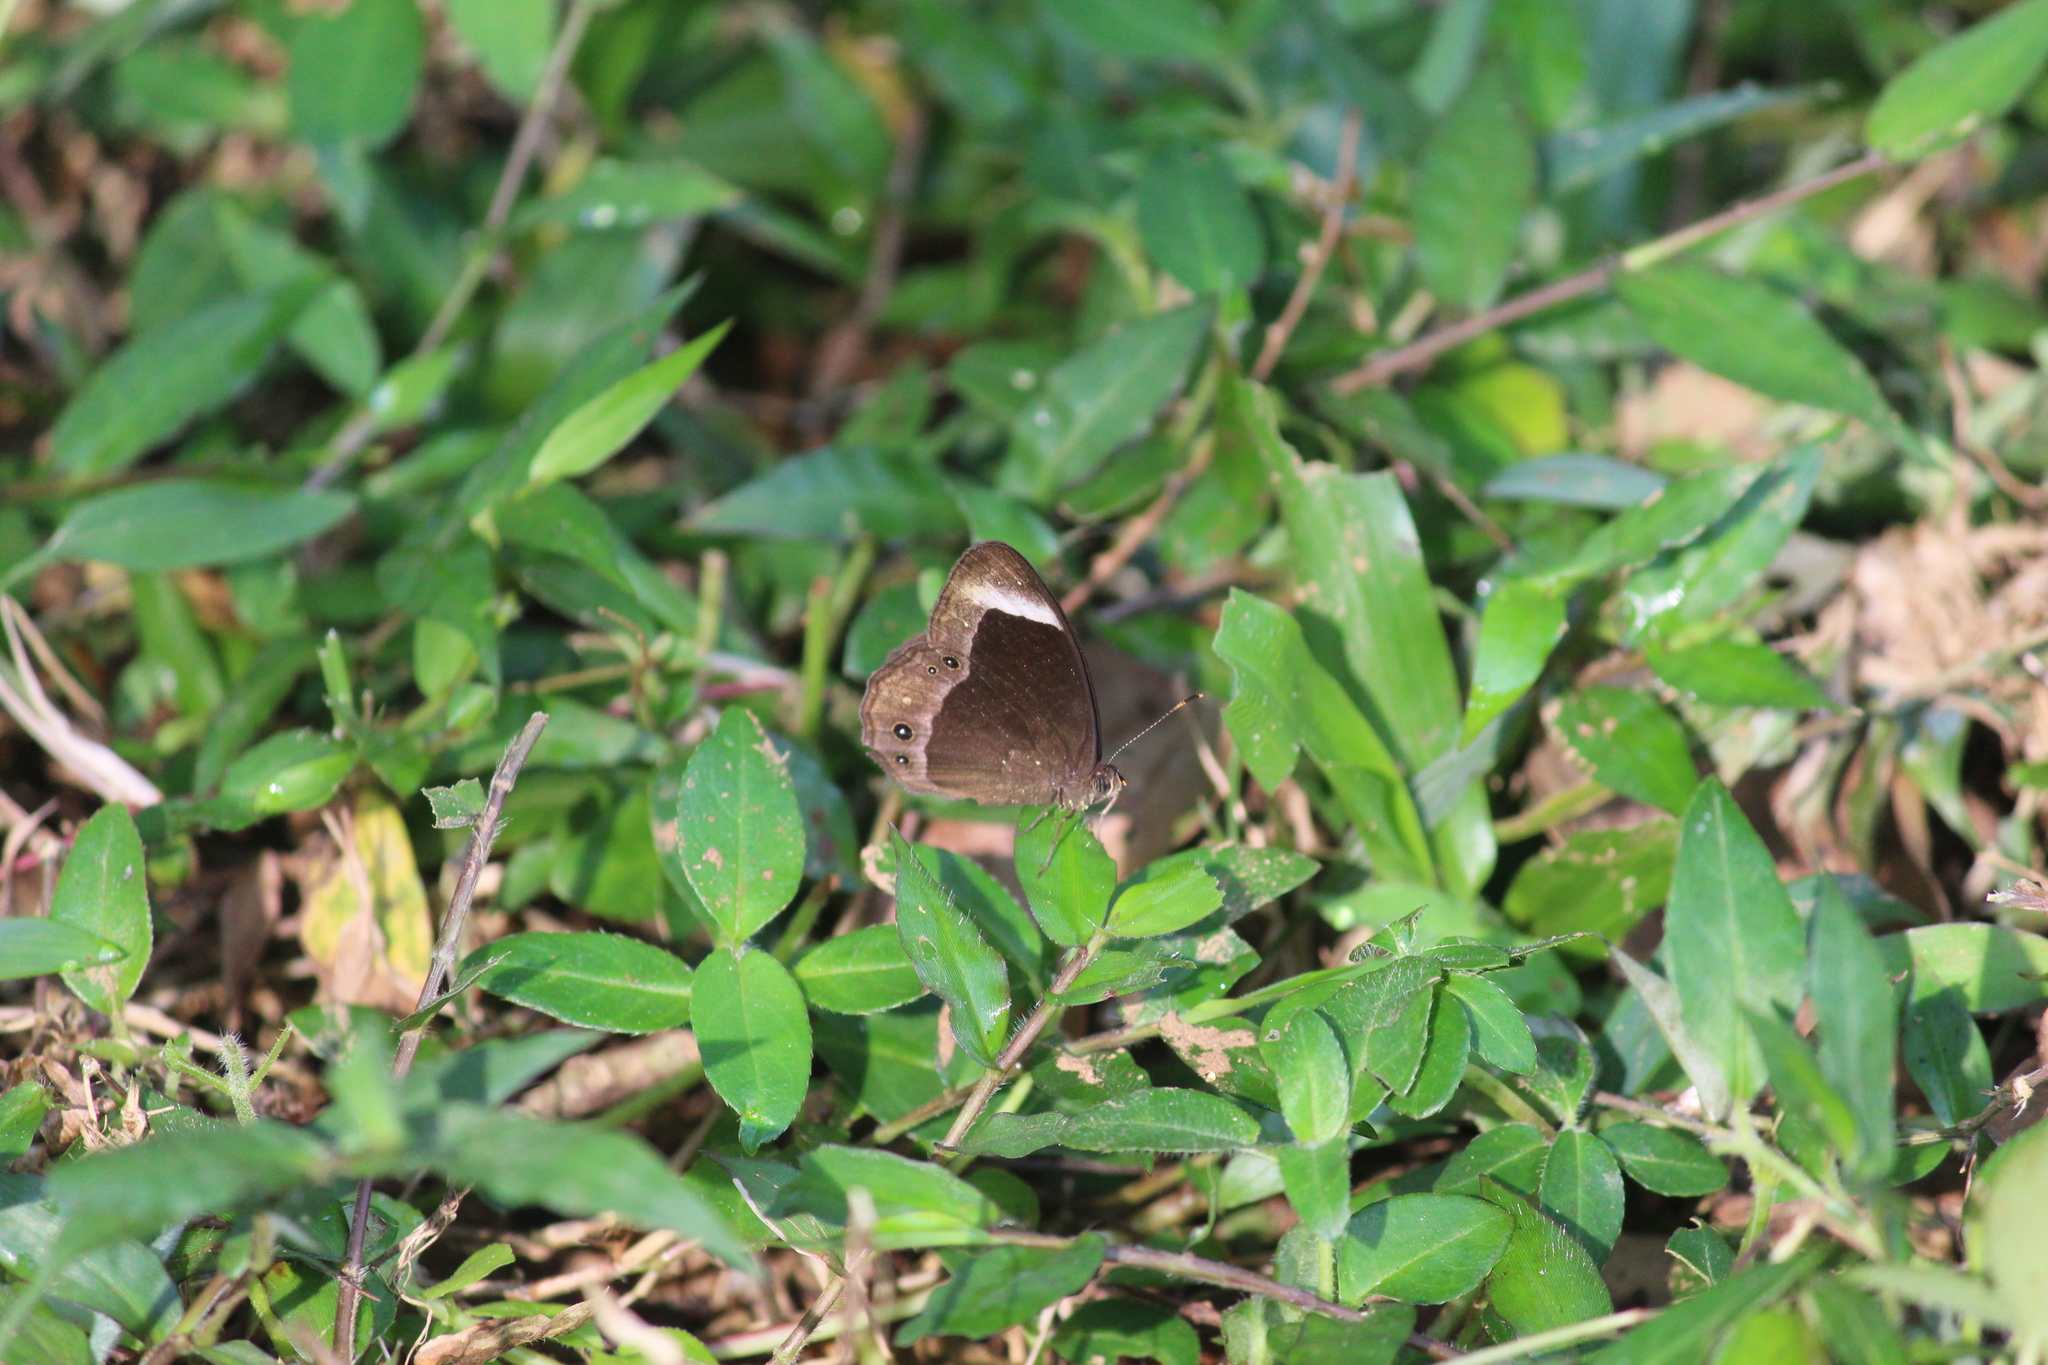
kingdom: Animalia
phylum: Arthropoda
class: Insecta
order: Lepidoptera
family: Nymphalidae
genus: Mycalesis
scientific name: Mycalesis anaxias
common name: White-bar bushbrown
